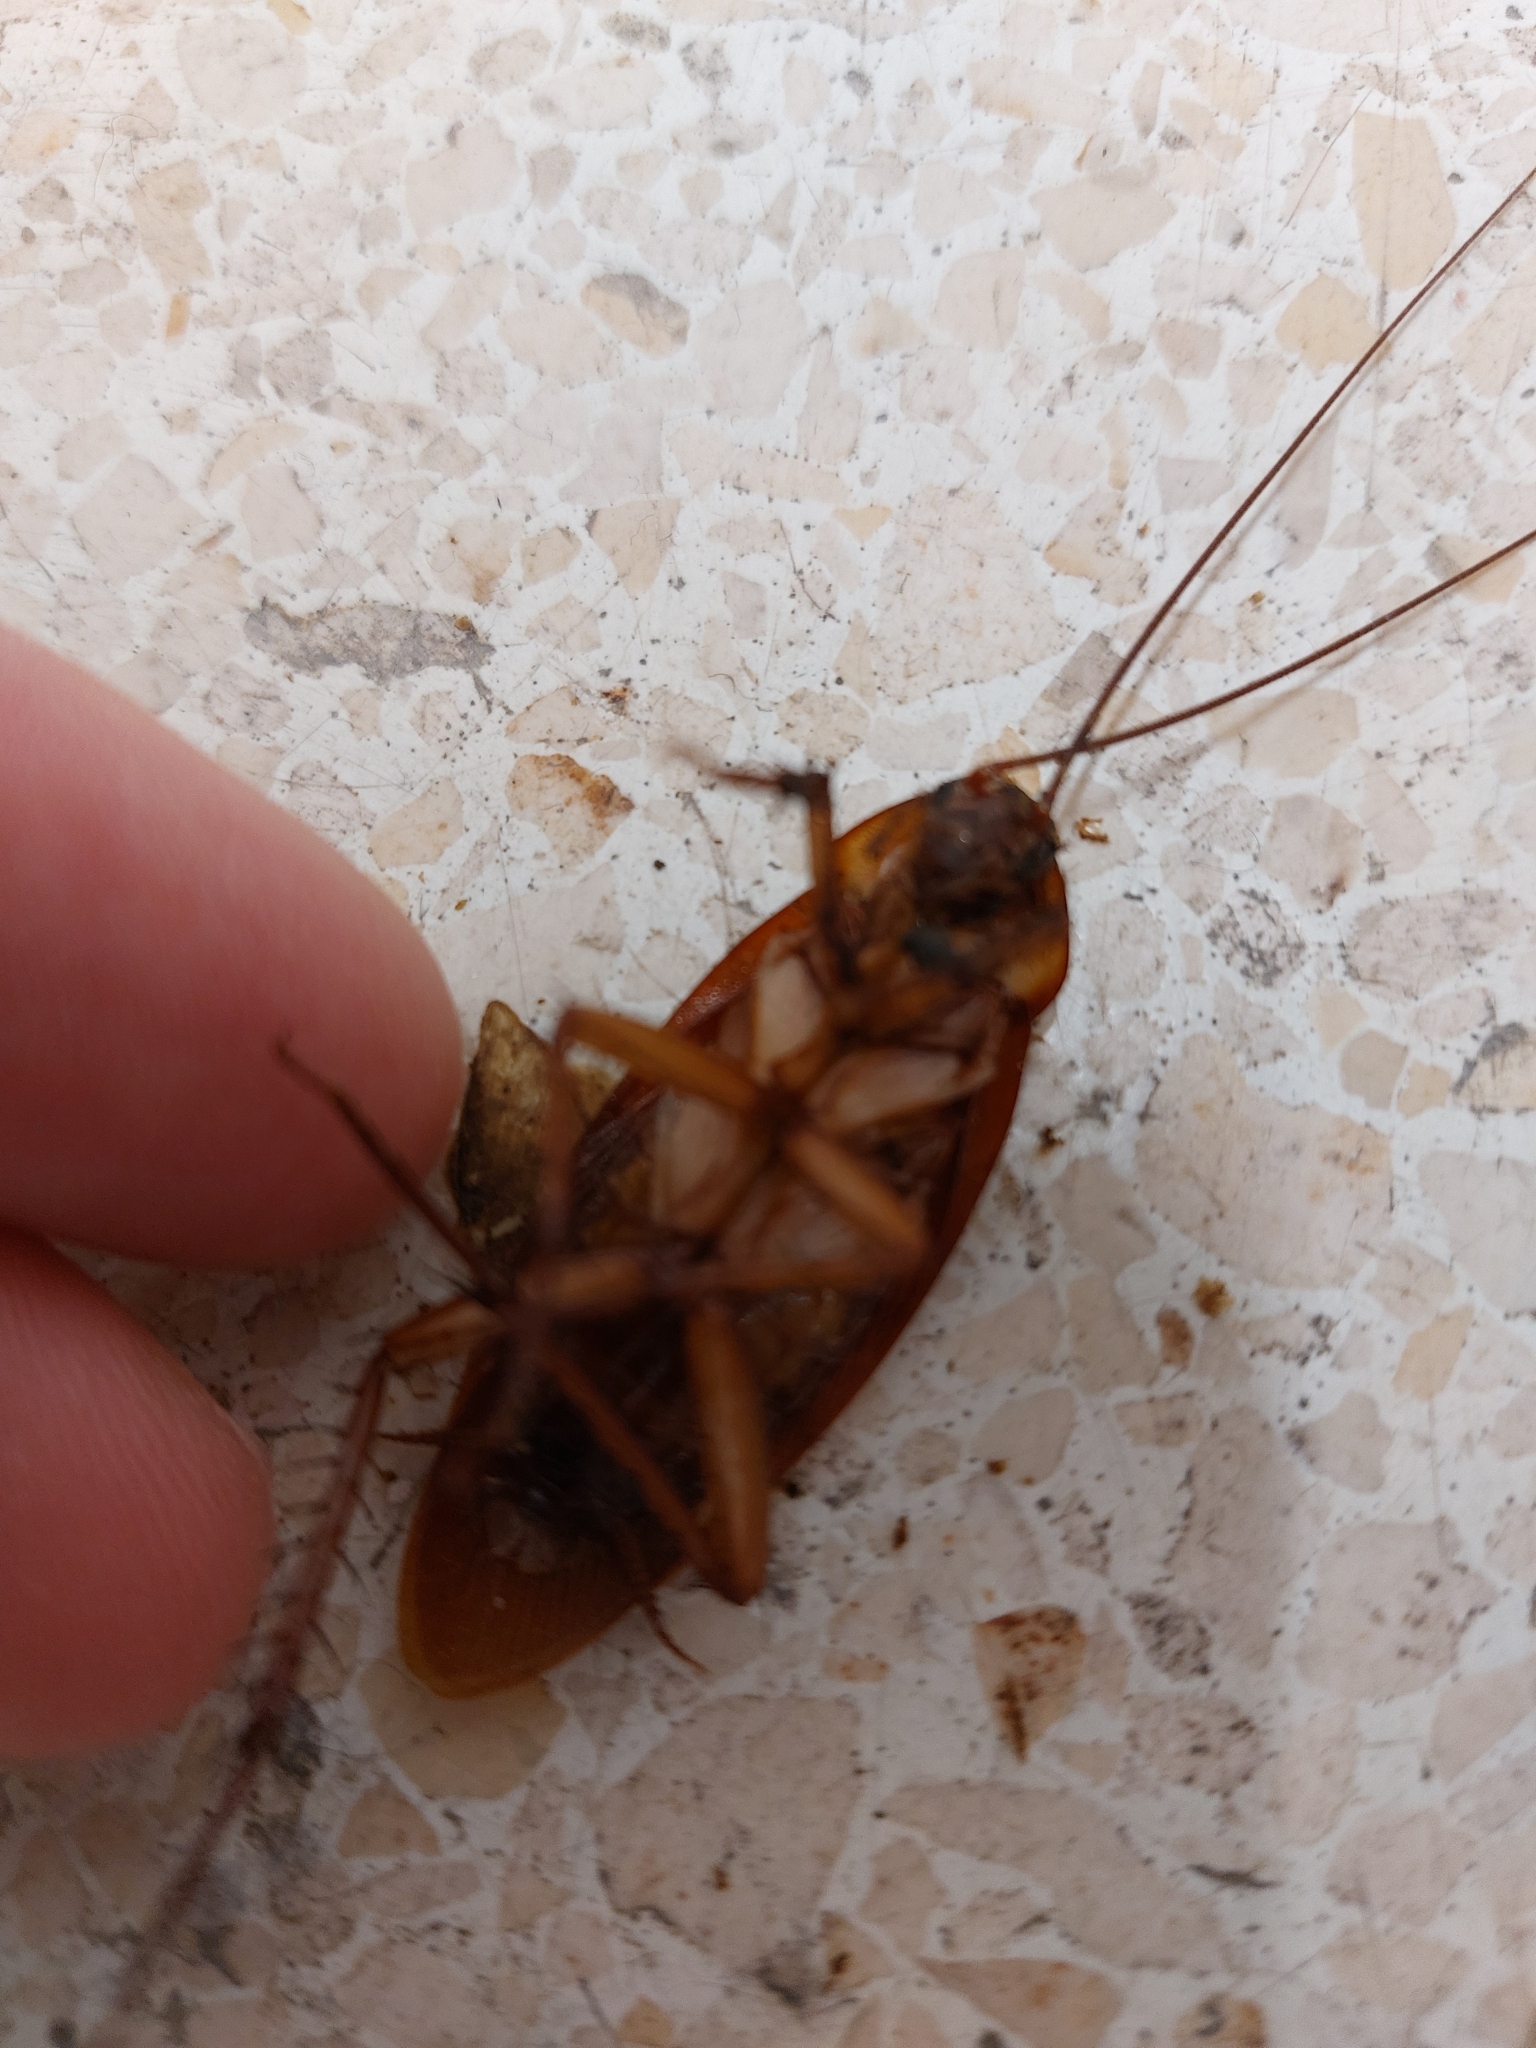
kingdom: Animalia
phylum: Arthropoda
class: Insecta
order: Blattodea
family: Blattidae
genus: Periplaneta
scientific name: Periplaneta americana
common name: American cockroach
